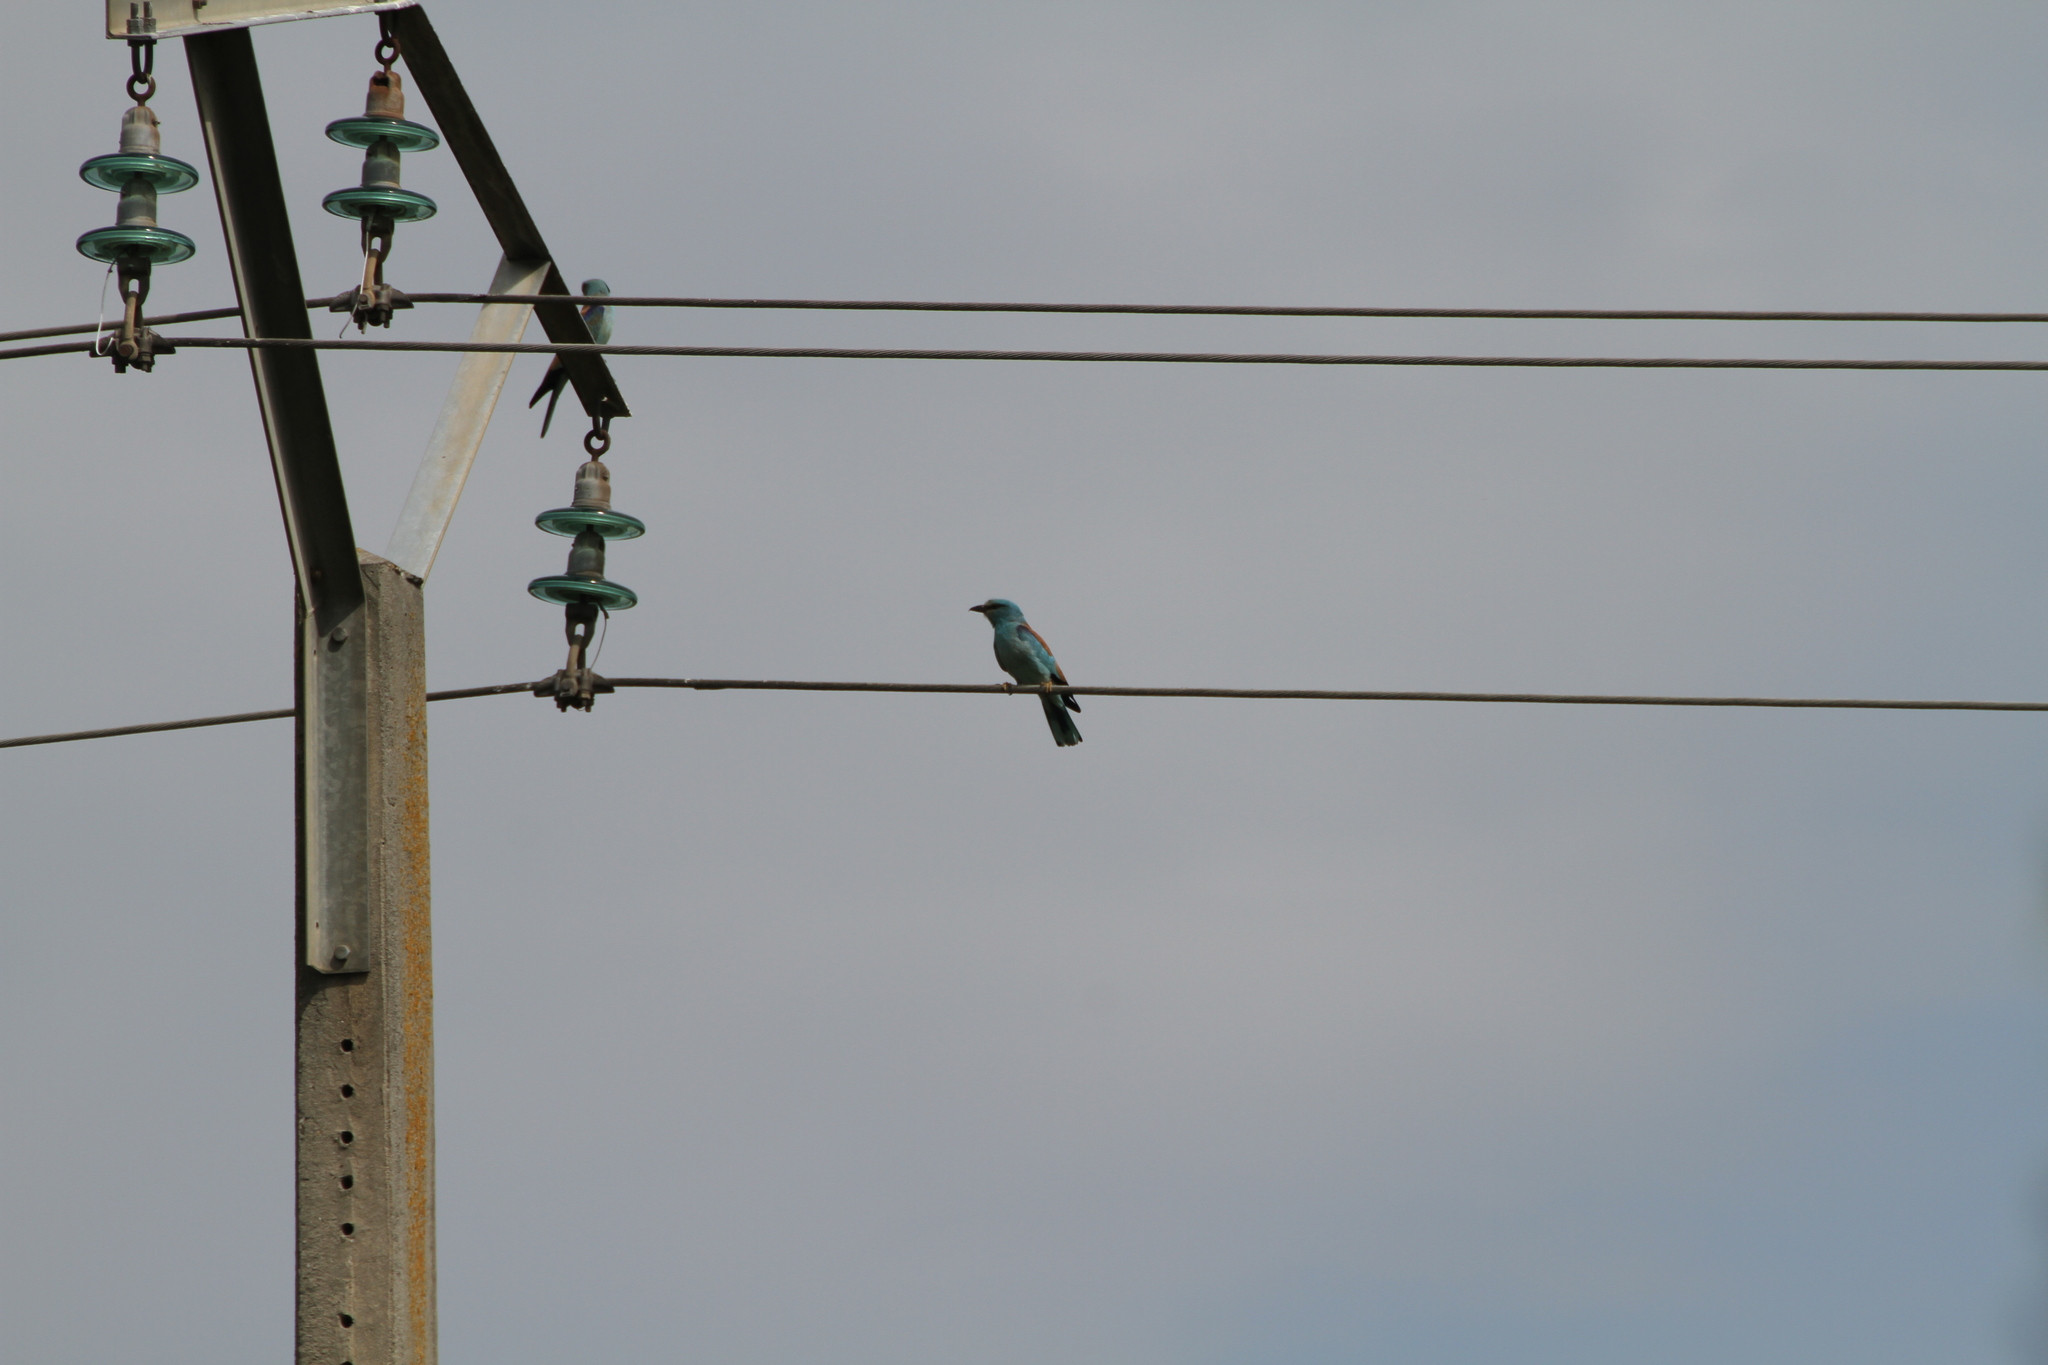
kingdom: Animalia
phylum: Chordata
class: Aves
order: Coraciiformes
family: Coraciidae
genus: Coracias
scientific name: Coracias garrulus
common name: European roller
